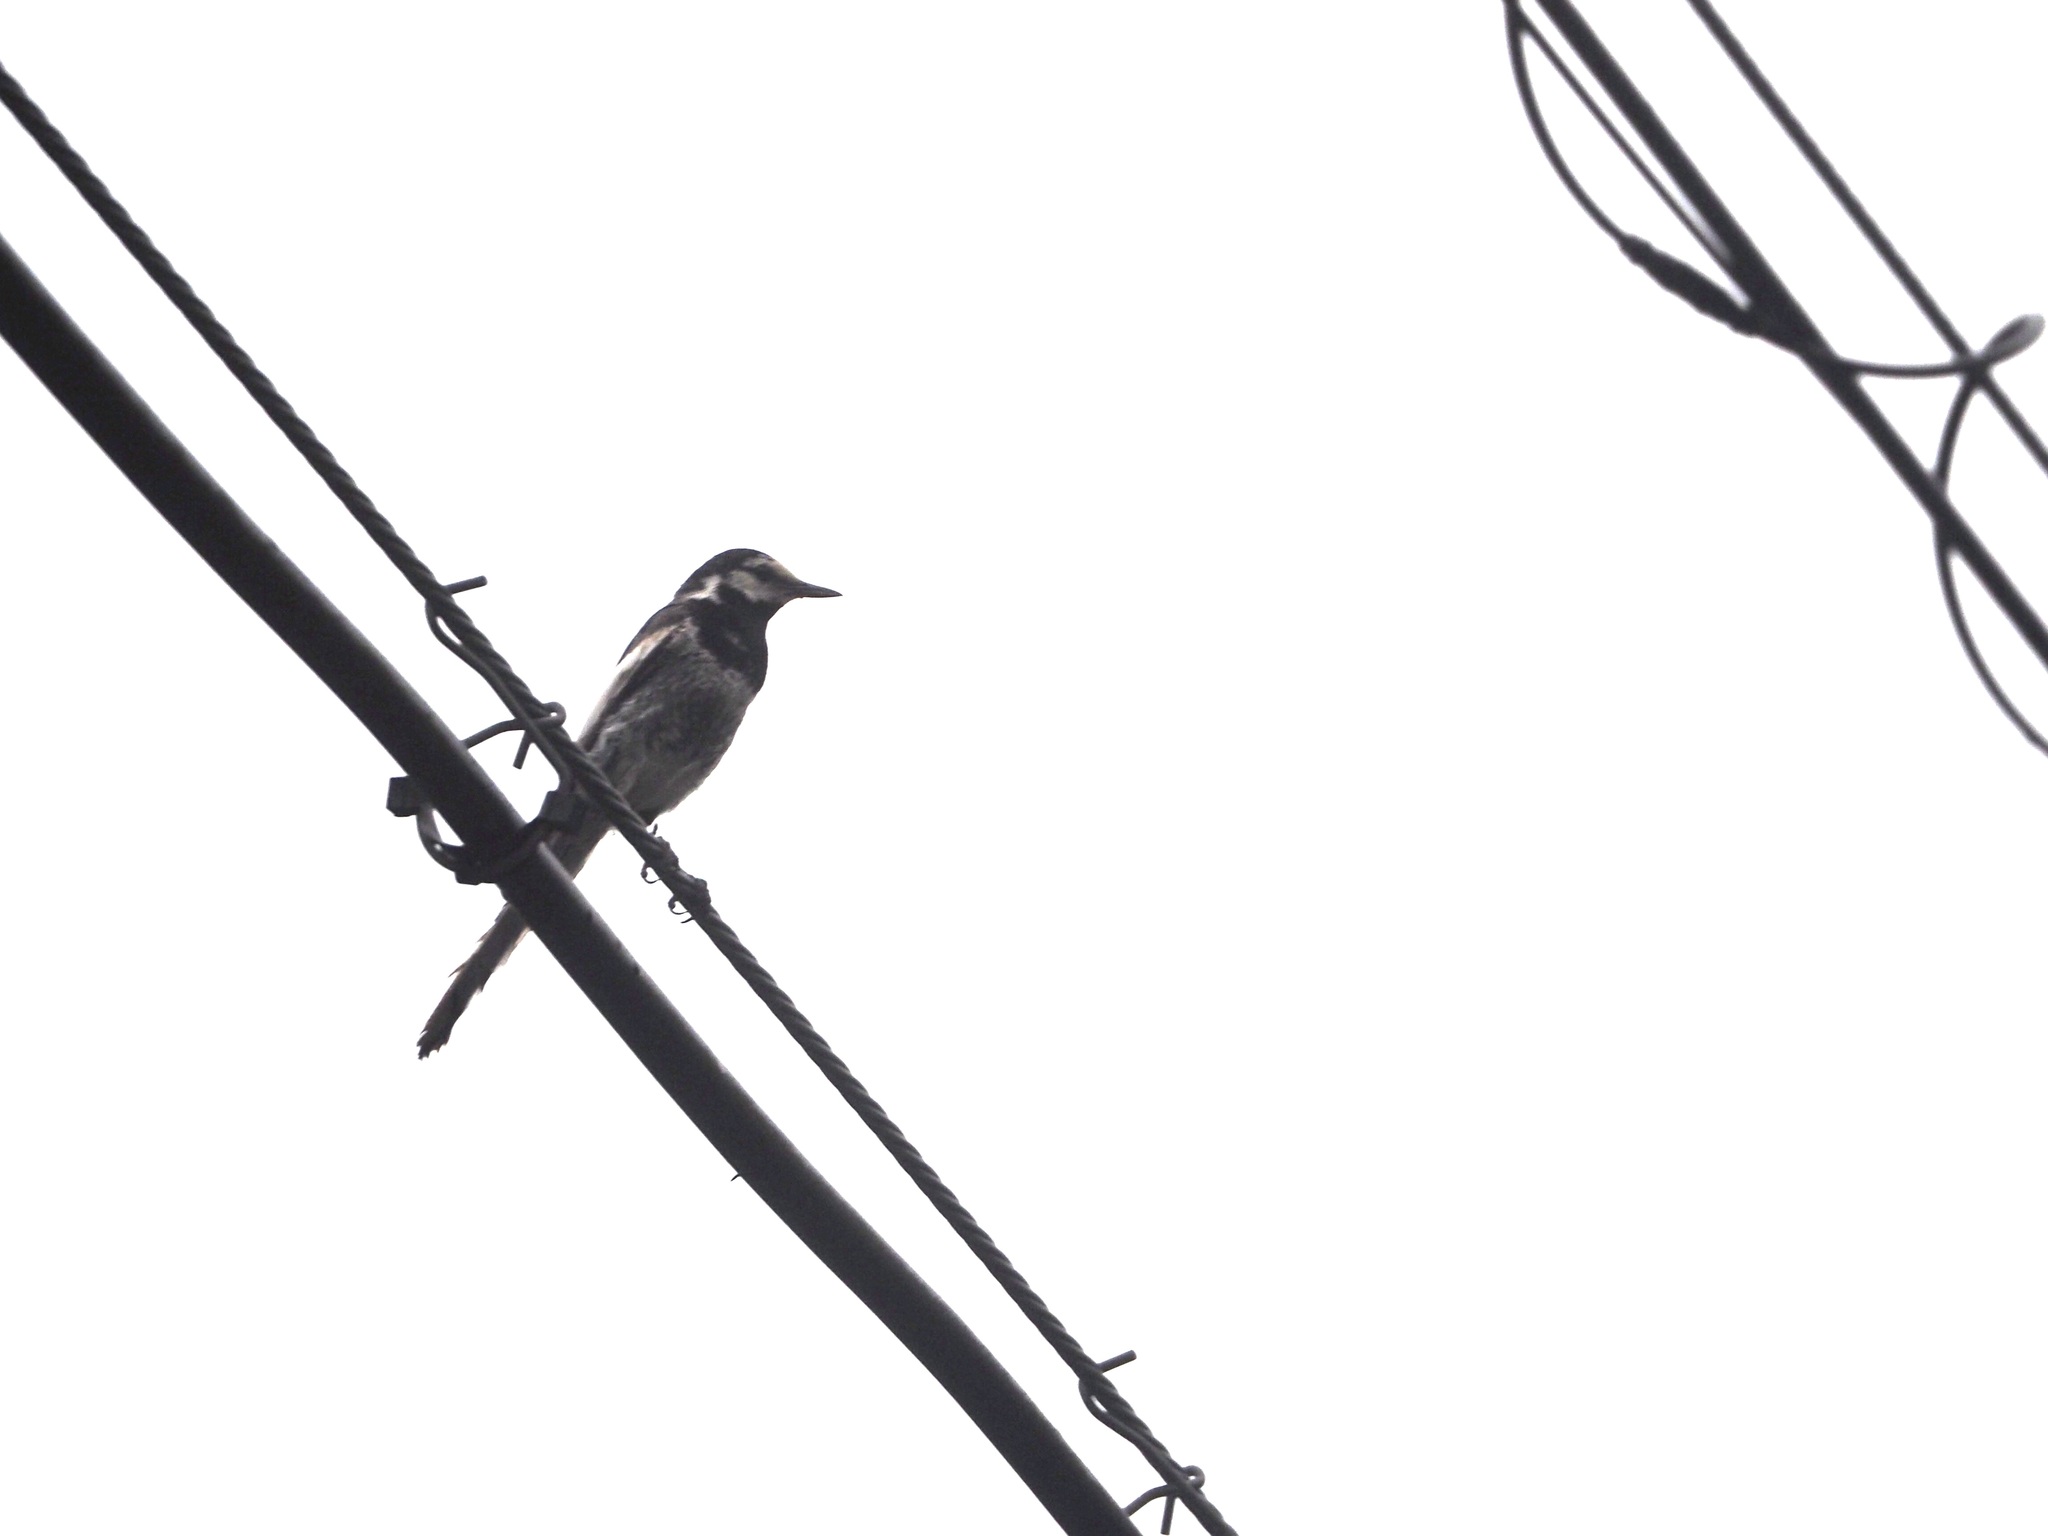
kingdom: Animalia
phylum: Chordata
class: Aves
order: Passeriformes
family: Motacillidae
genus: Motacilla
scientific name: Motacilla alba
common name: White wagtail
